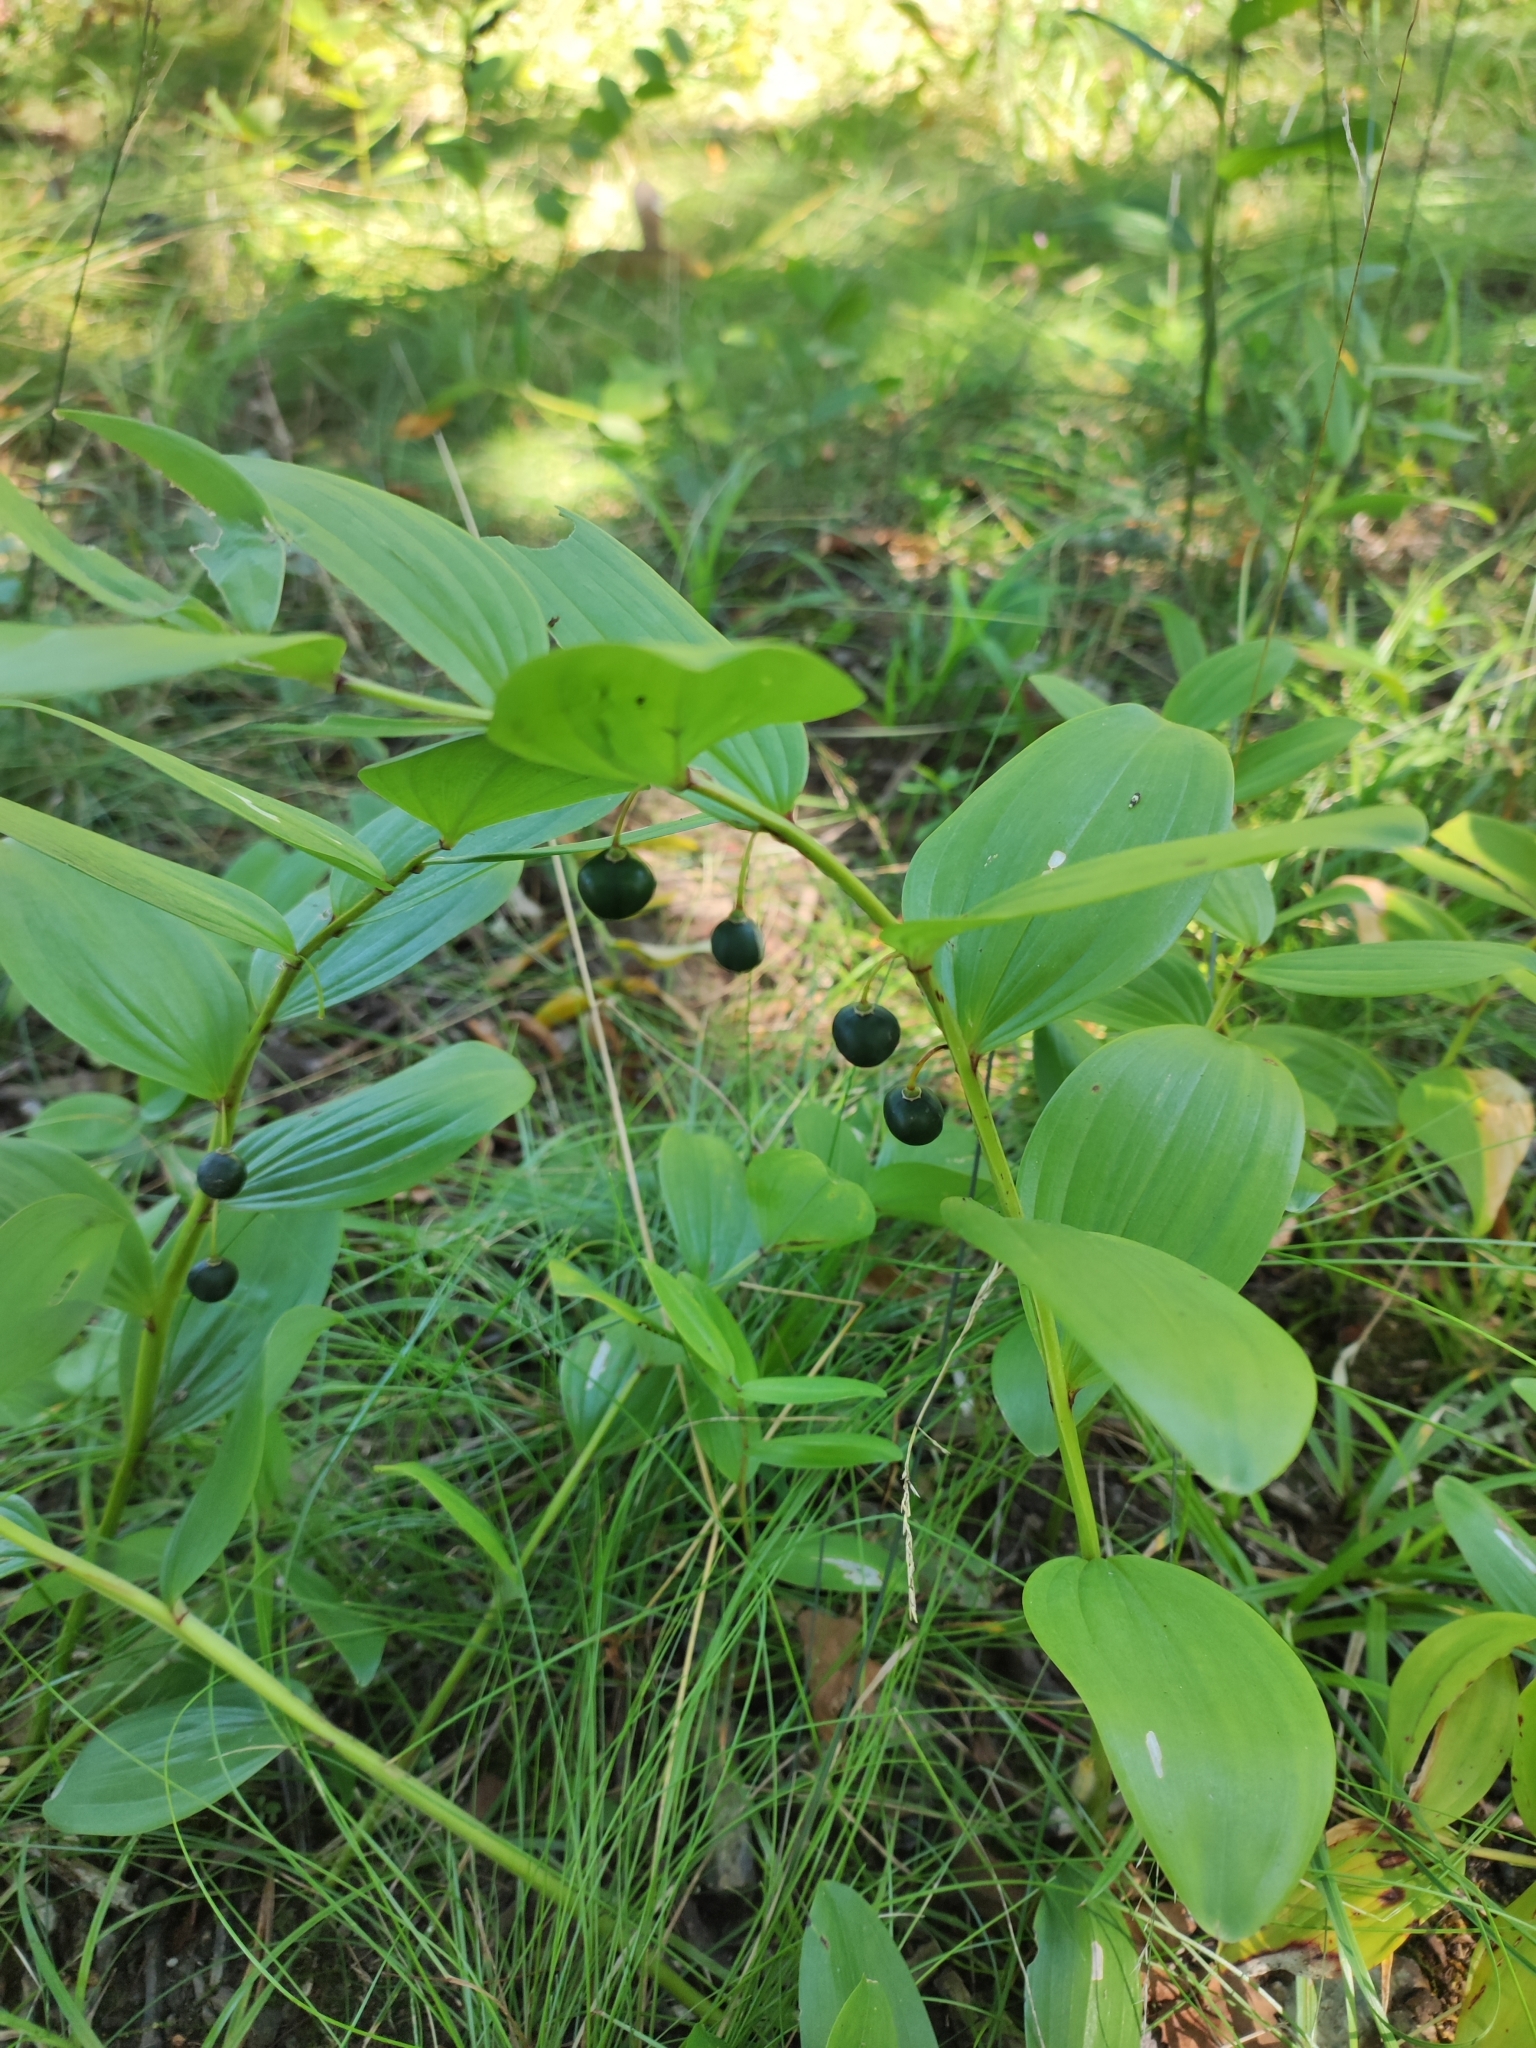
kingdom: Plantae
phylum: Tracheophyta
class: Liliopsida
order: Asparagales
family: Asparagaceae
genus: Polygonatum
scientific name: Polygonatum odoratum
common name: Angular solomon's-seal
